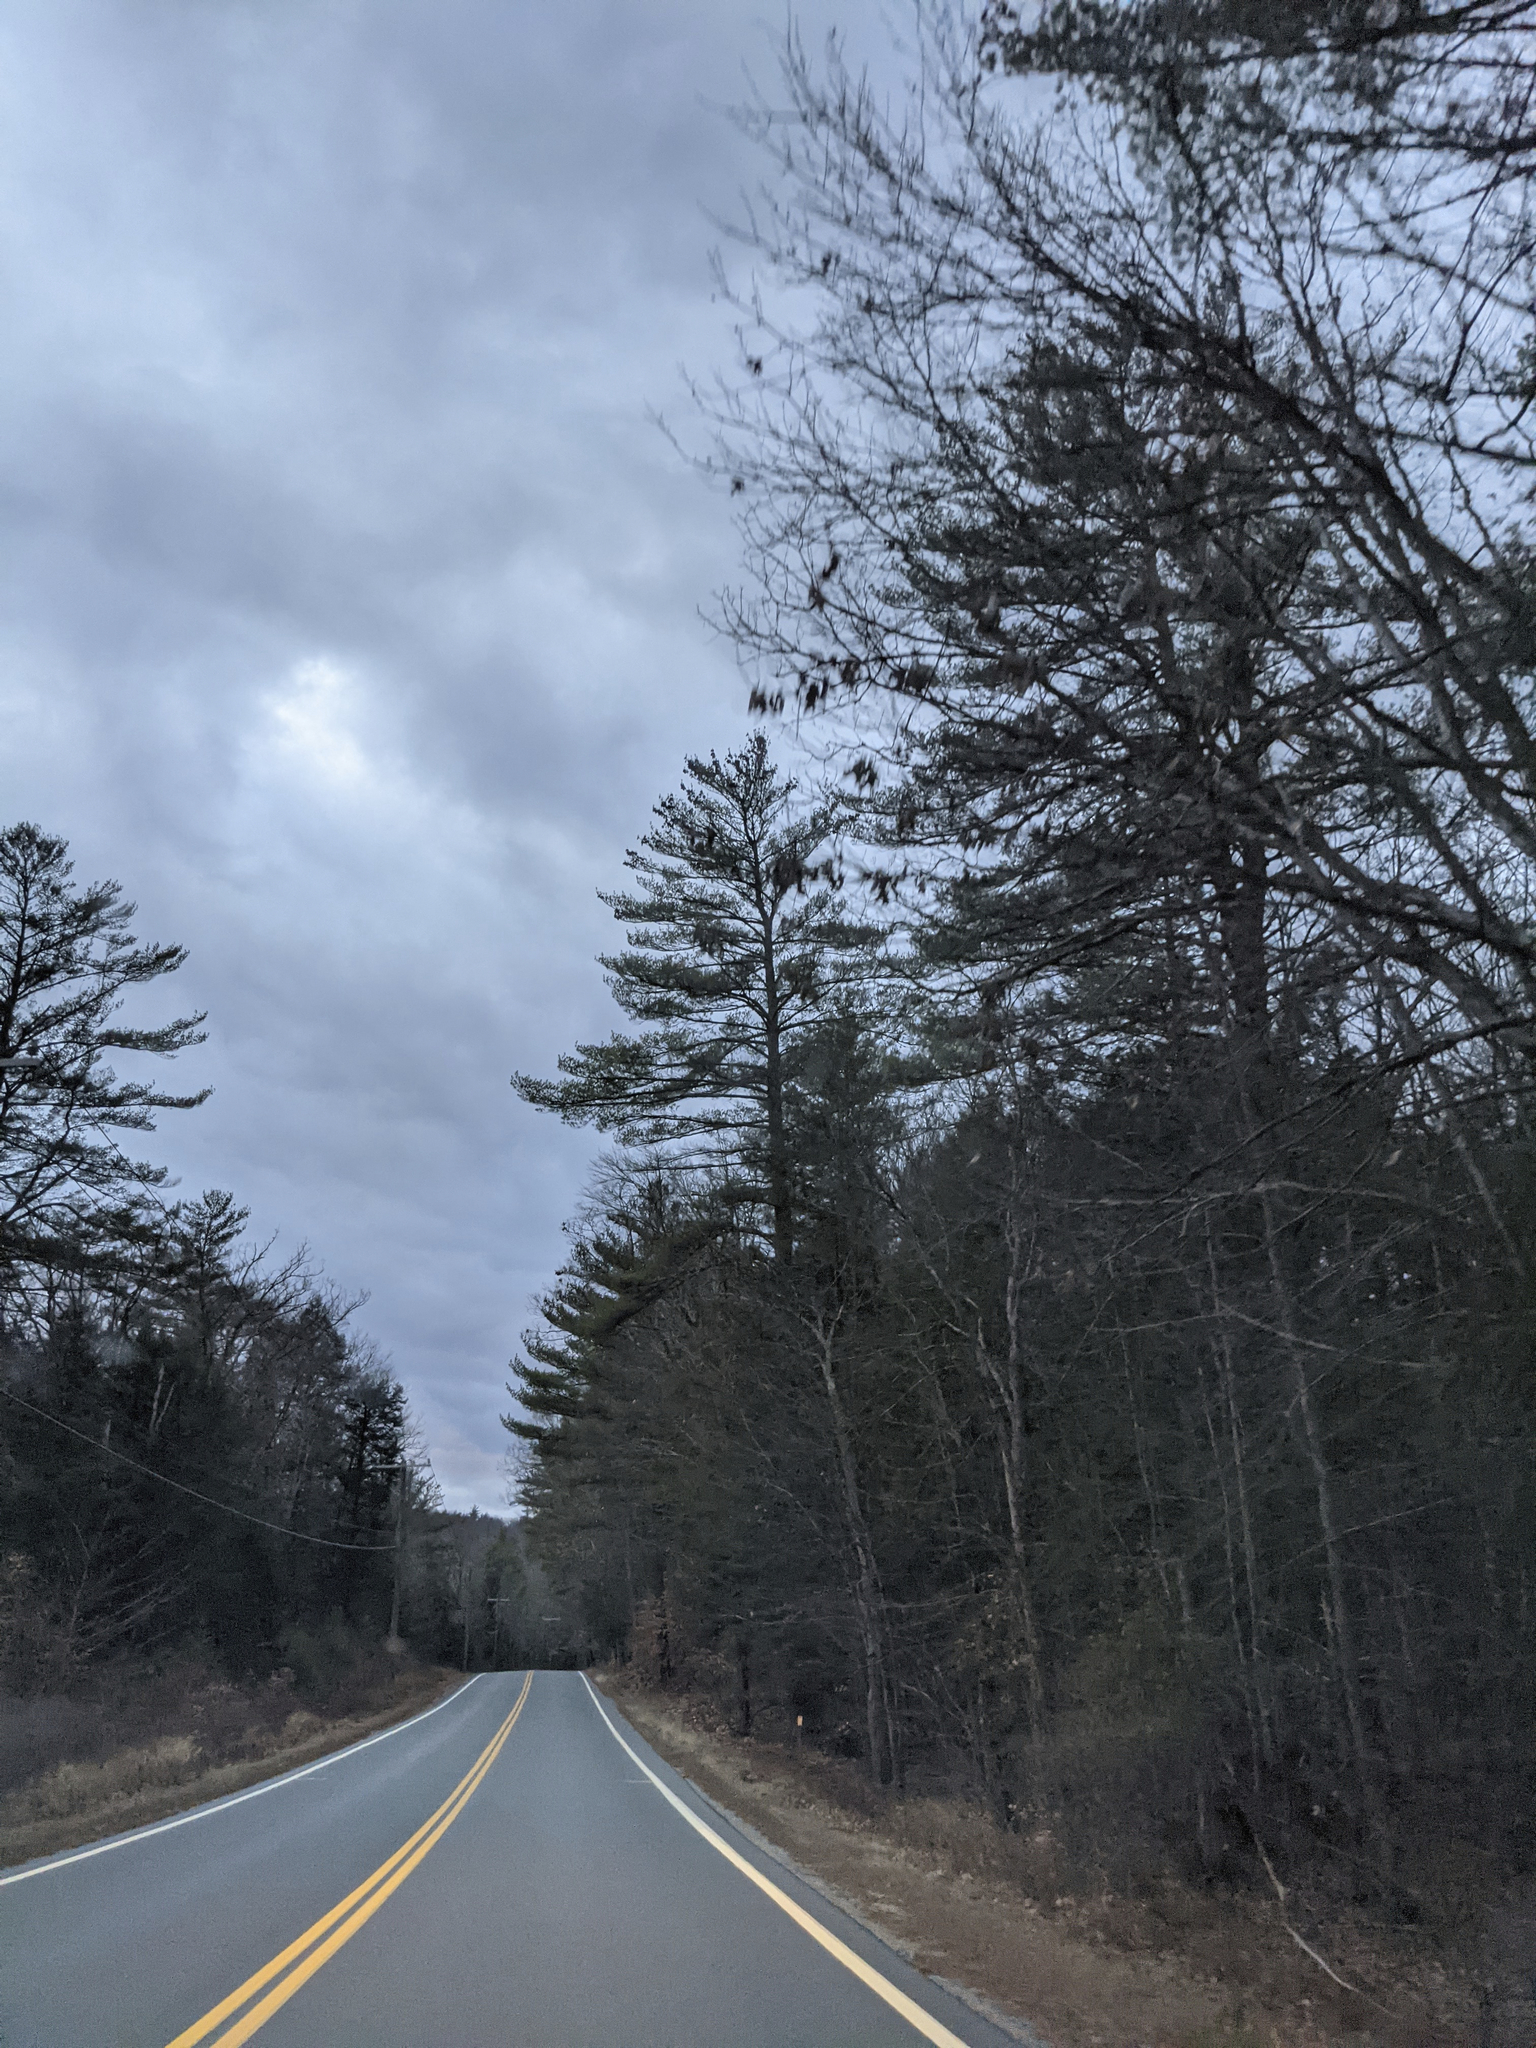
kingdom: Plantae
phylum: Tracheophyta
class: Pinopsida
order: Pinales
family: Pinaceae
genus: Pinus
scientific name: Pinus strobus
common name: Weymouth pine
